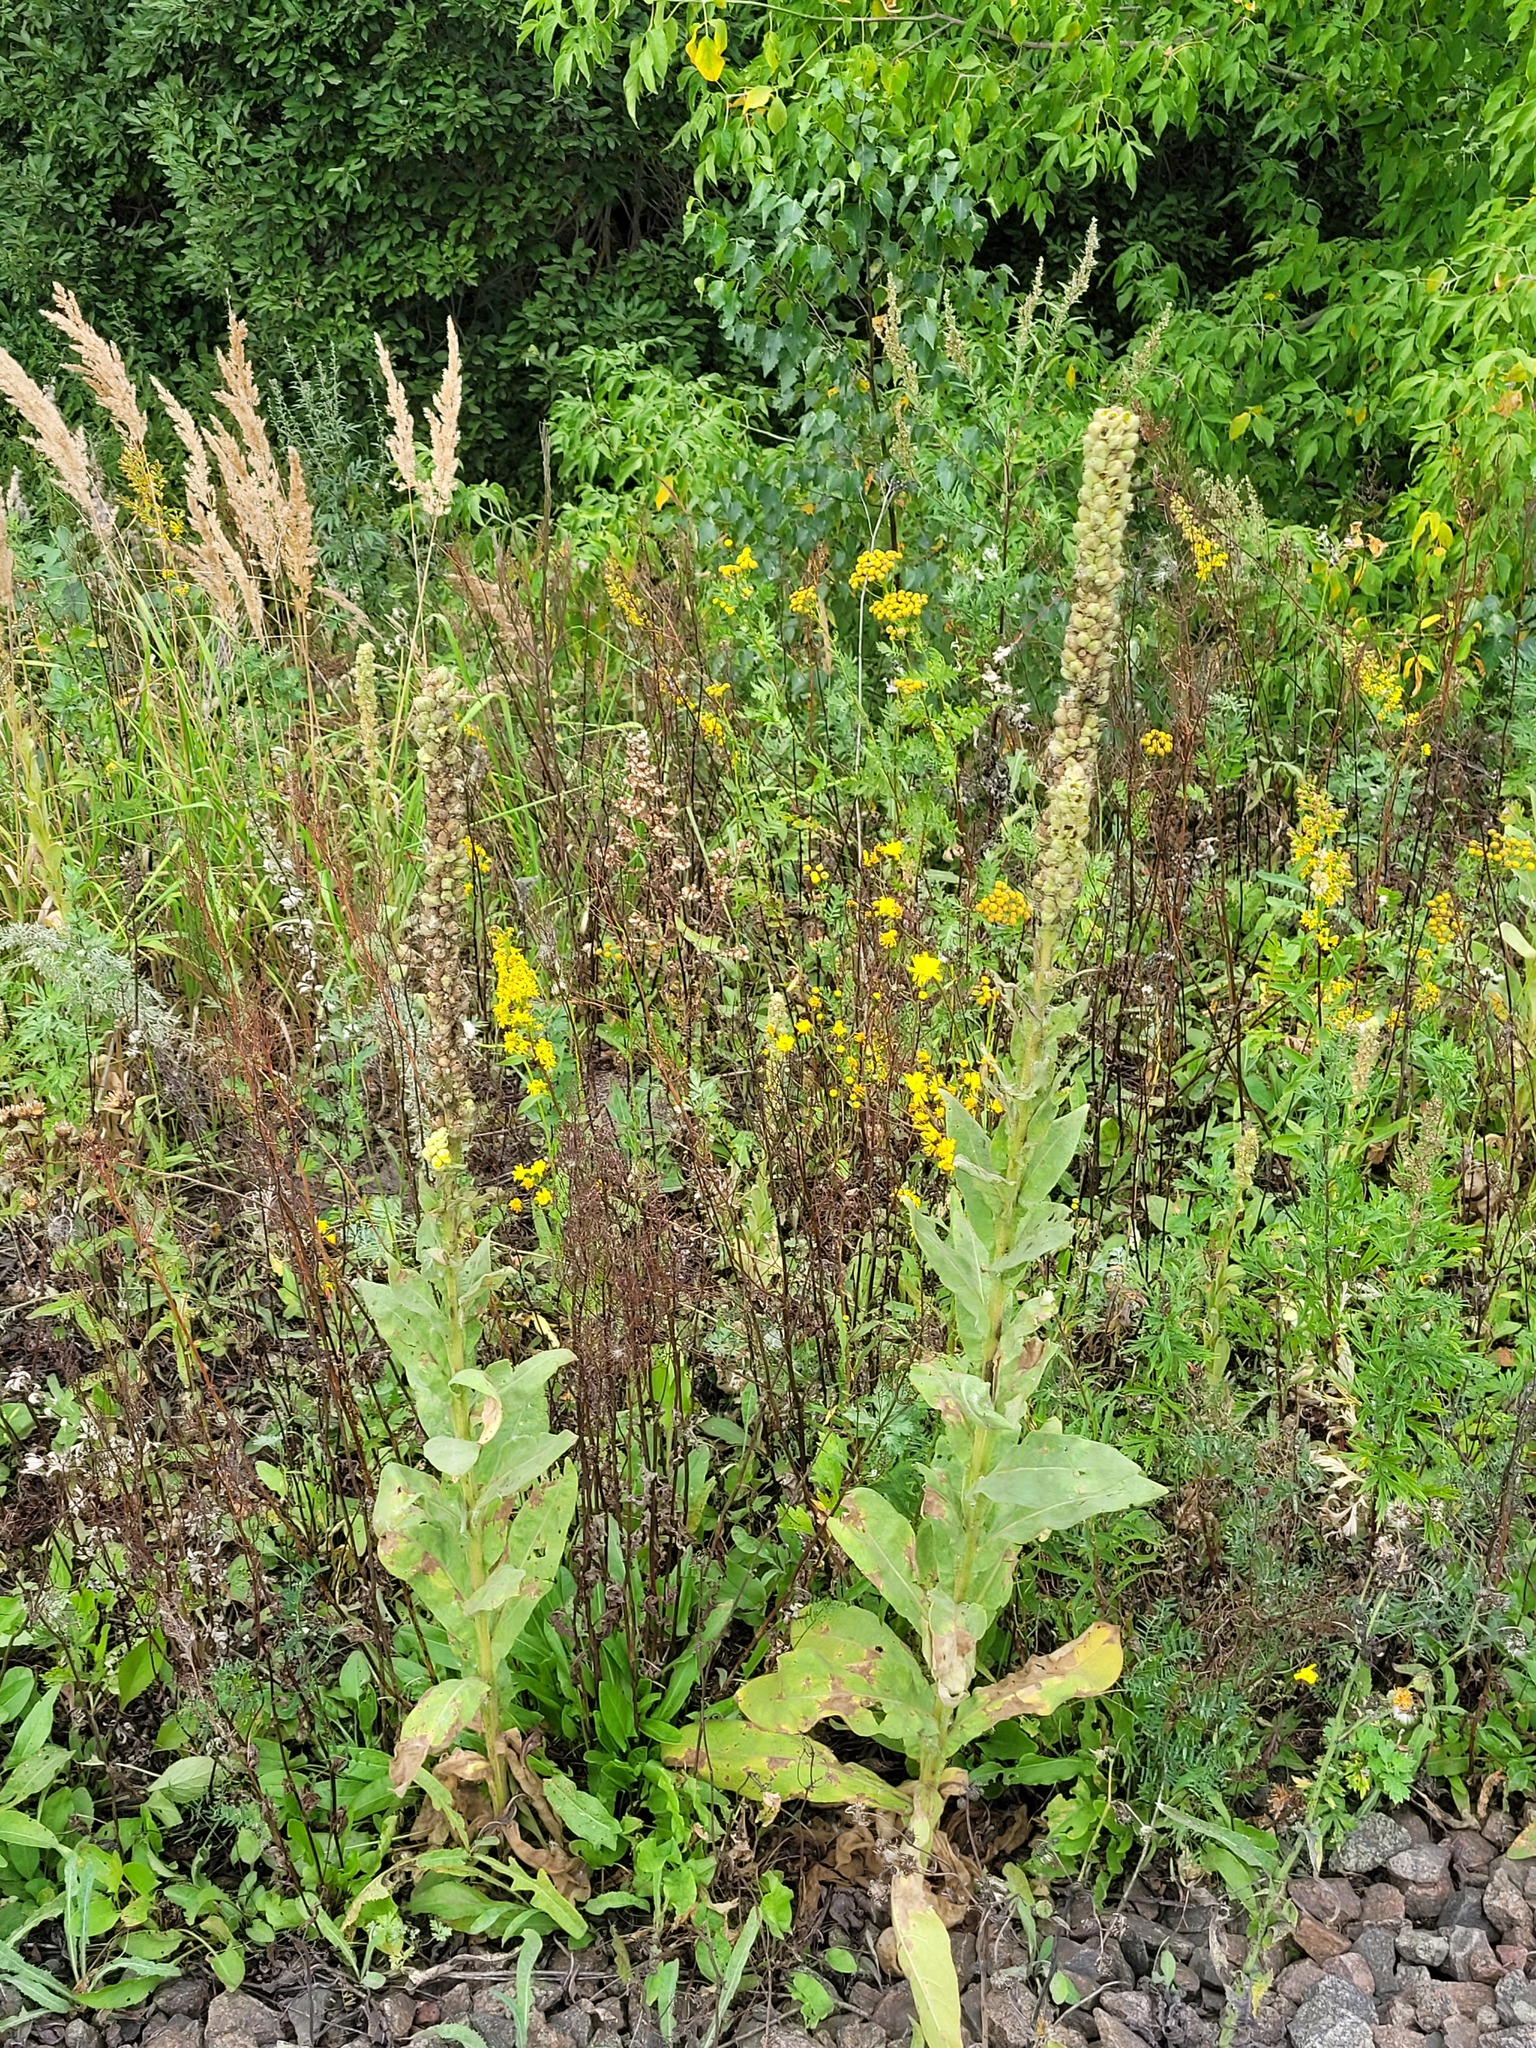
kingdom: Plantae
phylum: Tracheophyta
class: Magnoliopsida
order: Lamiales
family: Scrophulariaceae
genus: Verbascum
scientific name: Verbascum thapsus
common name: Common mullein
